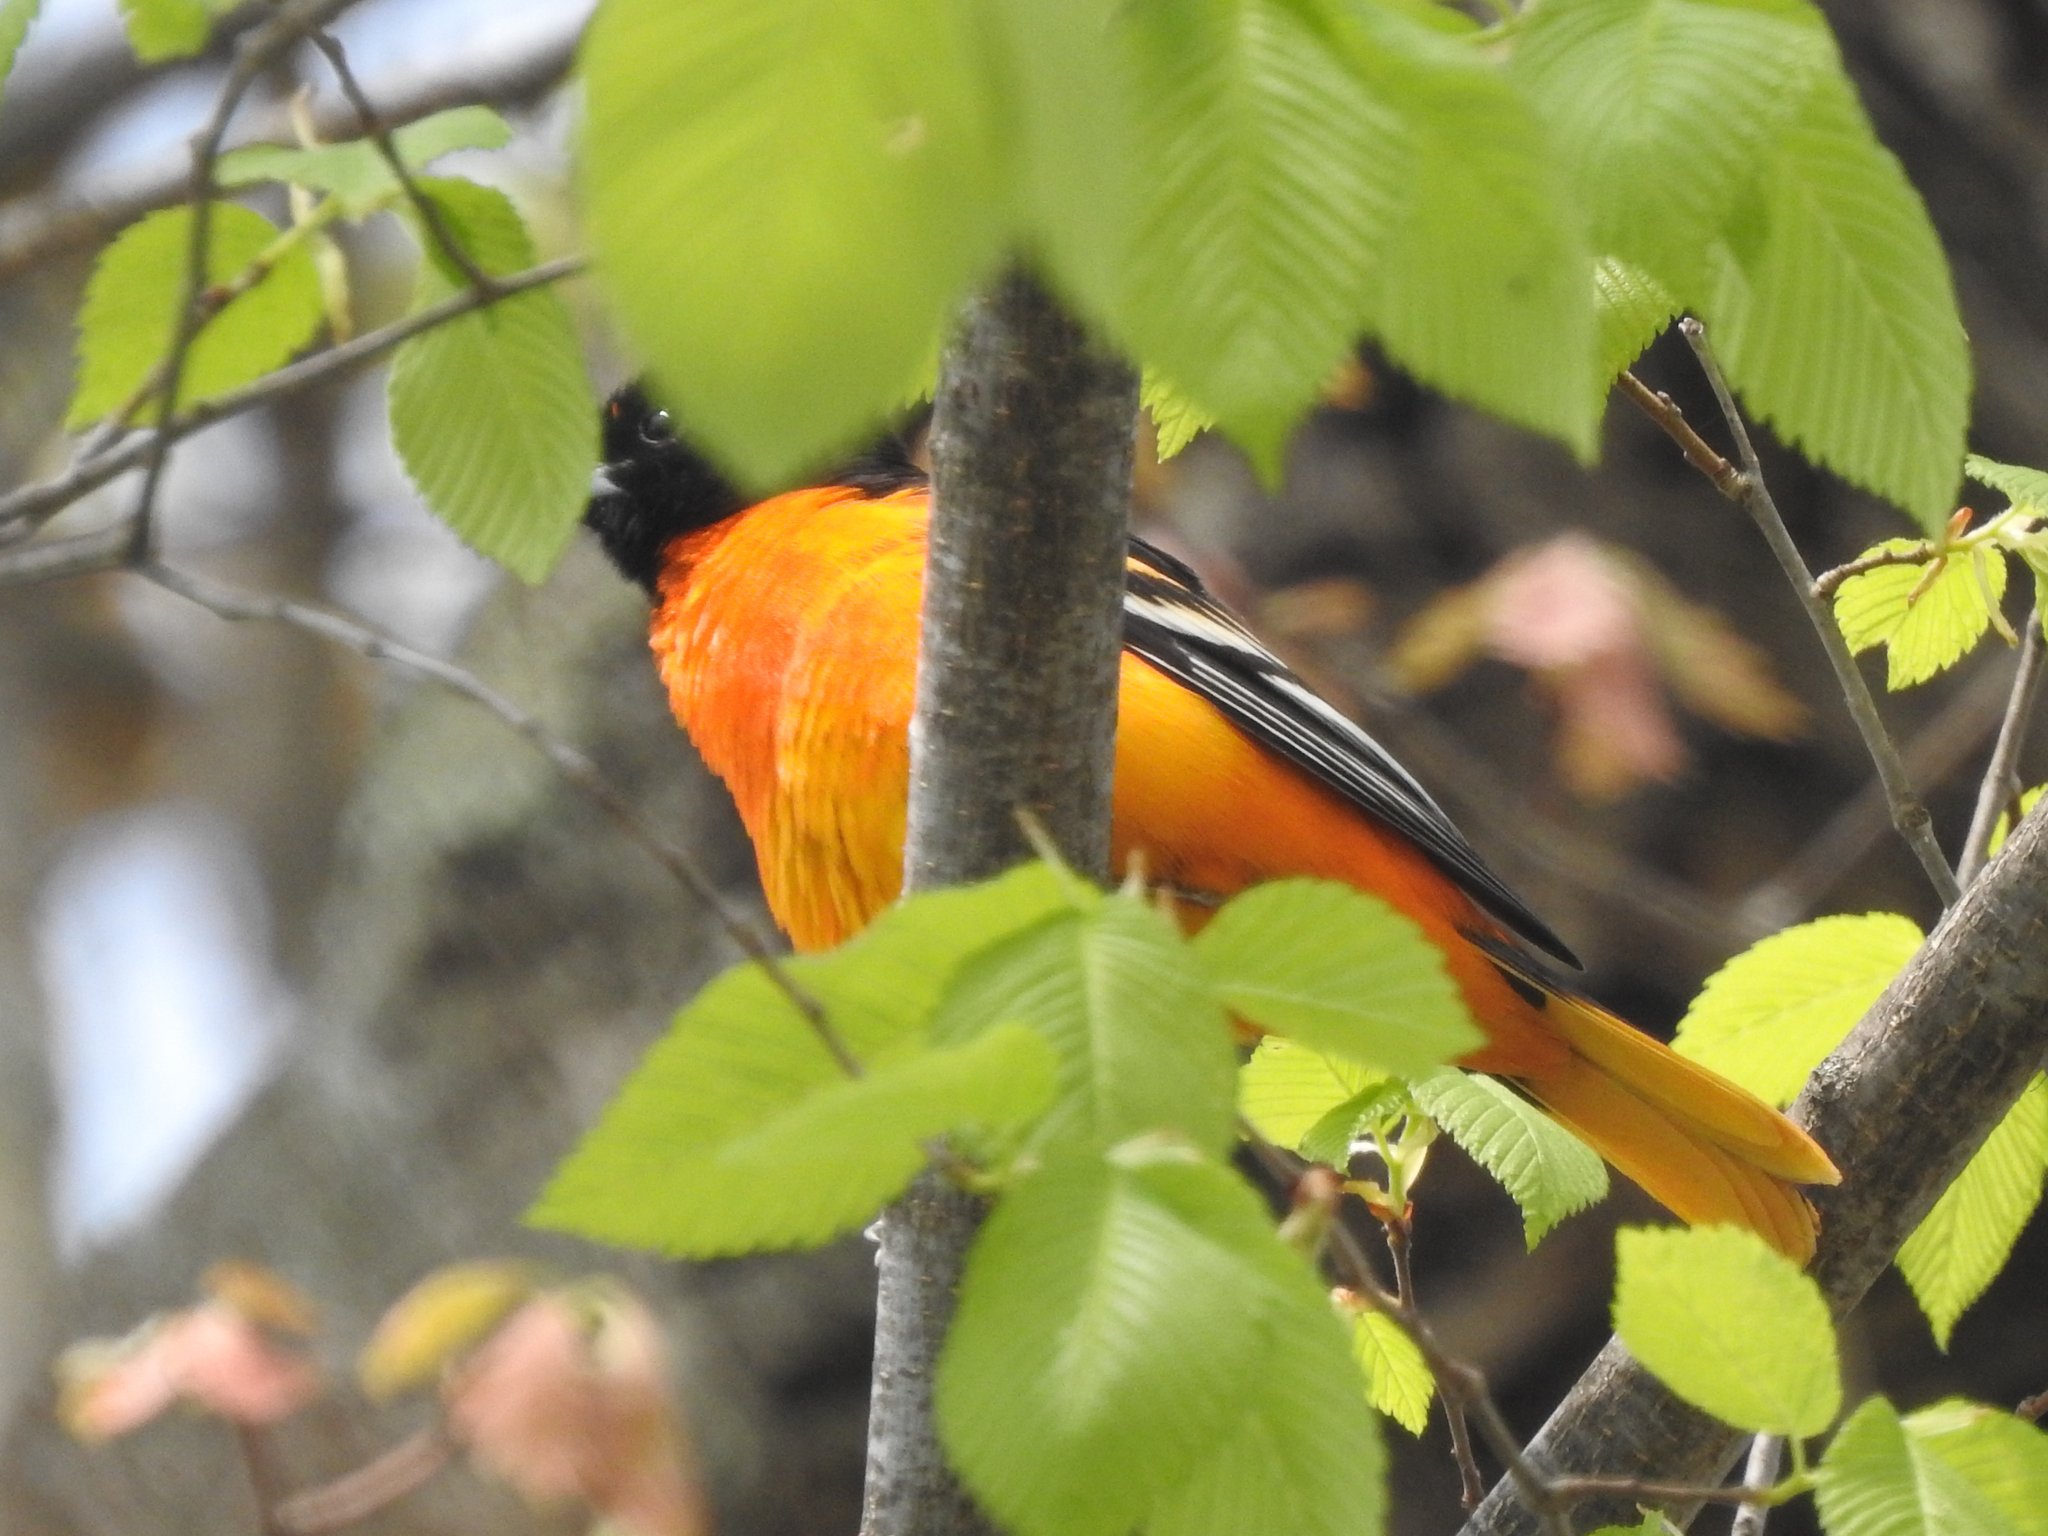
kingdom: Animalia
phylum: Chordata
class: Aves
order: Passeriformes
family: Icteridae
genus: Icterus
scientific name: Icterus galbula
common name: Baltimore oriole
